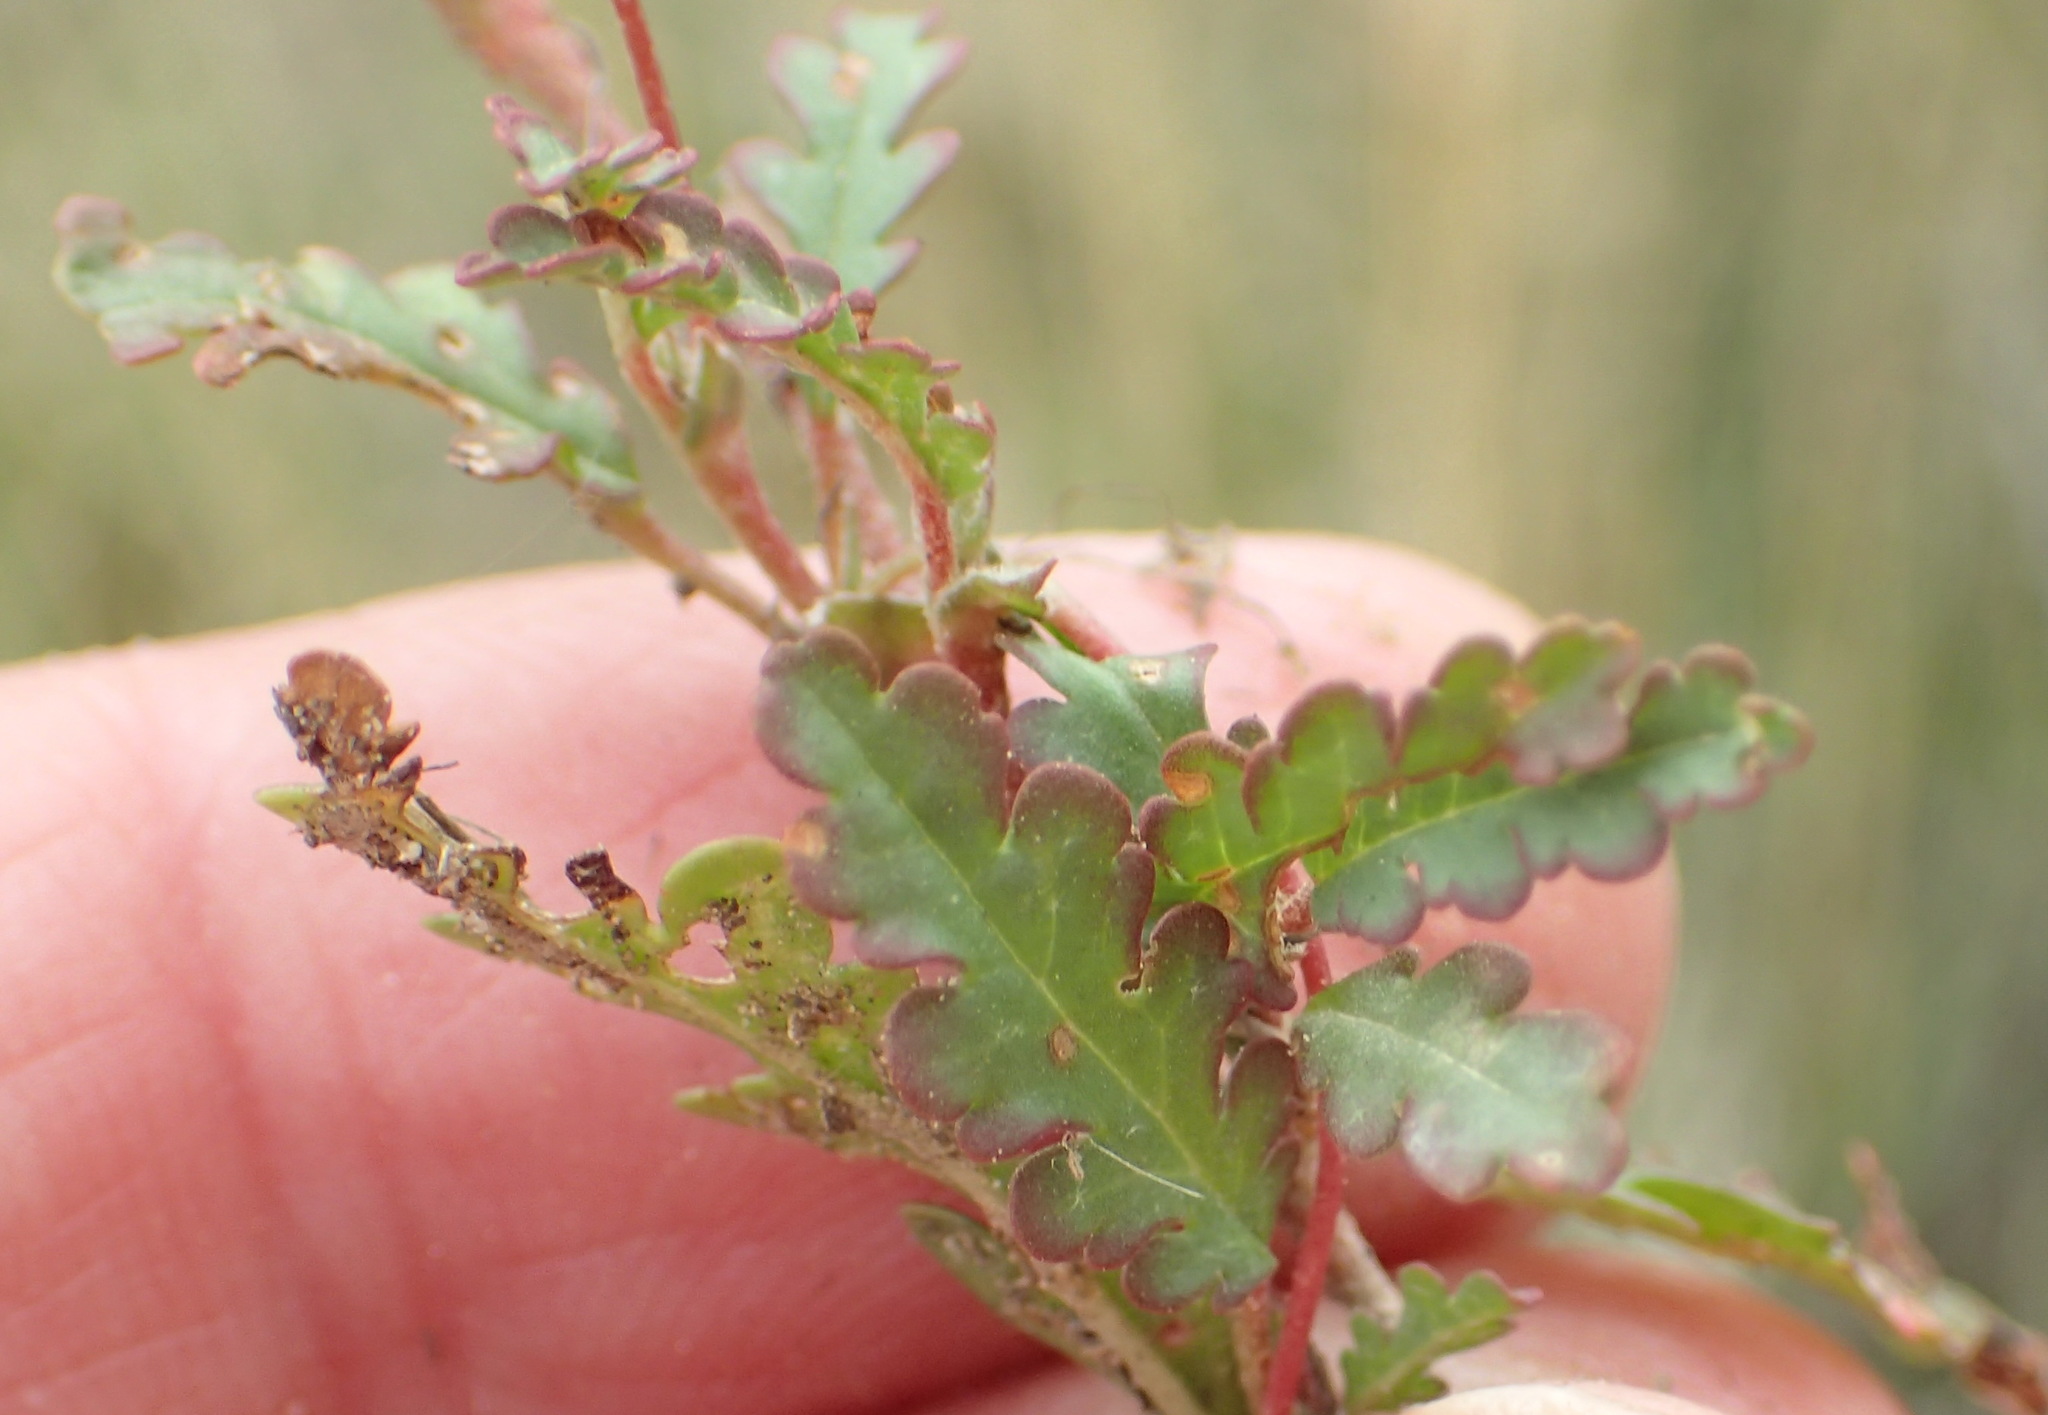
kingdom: Plantae
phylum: Tracheophyta
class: Magnoliopsida
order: Malvales
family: Malvaceae
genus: Hermannia
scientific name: Hermannia coccocarpa
